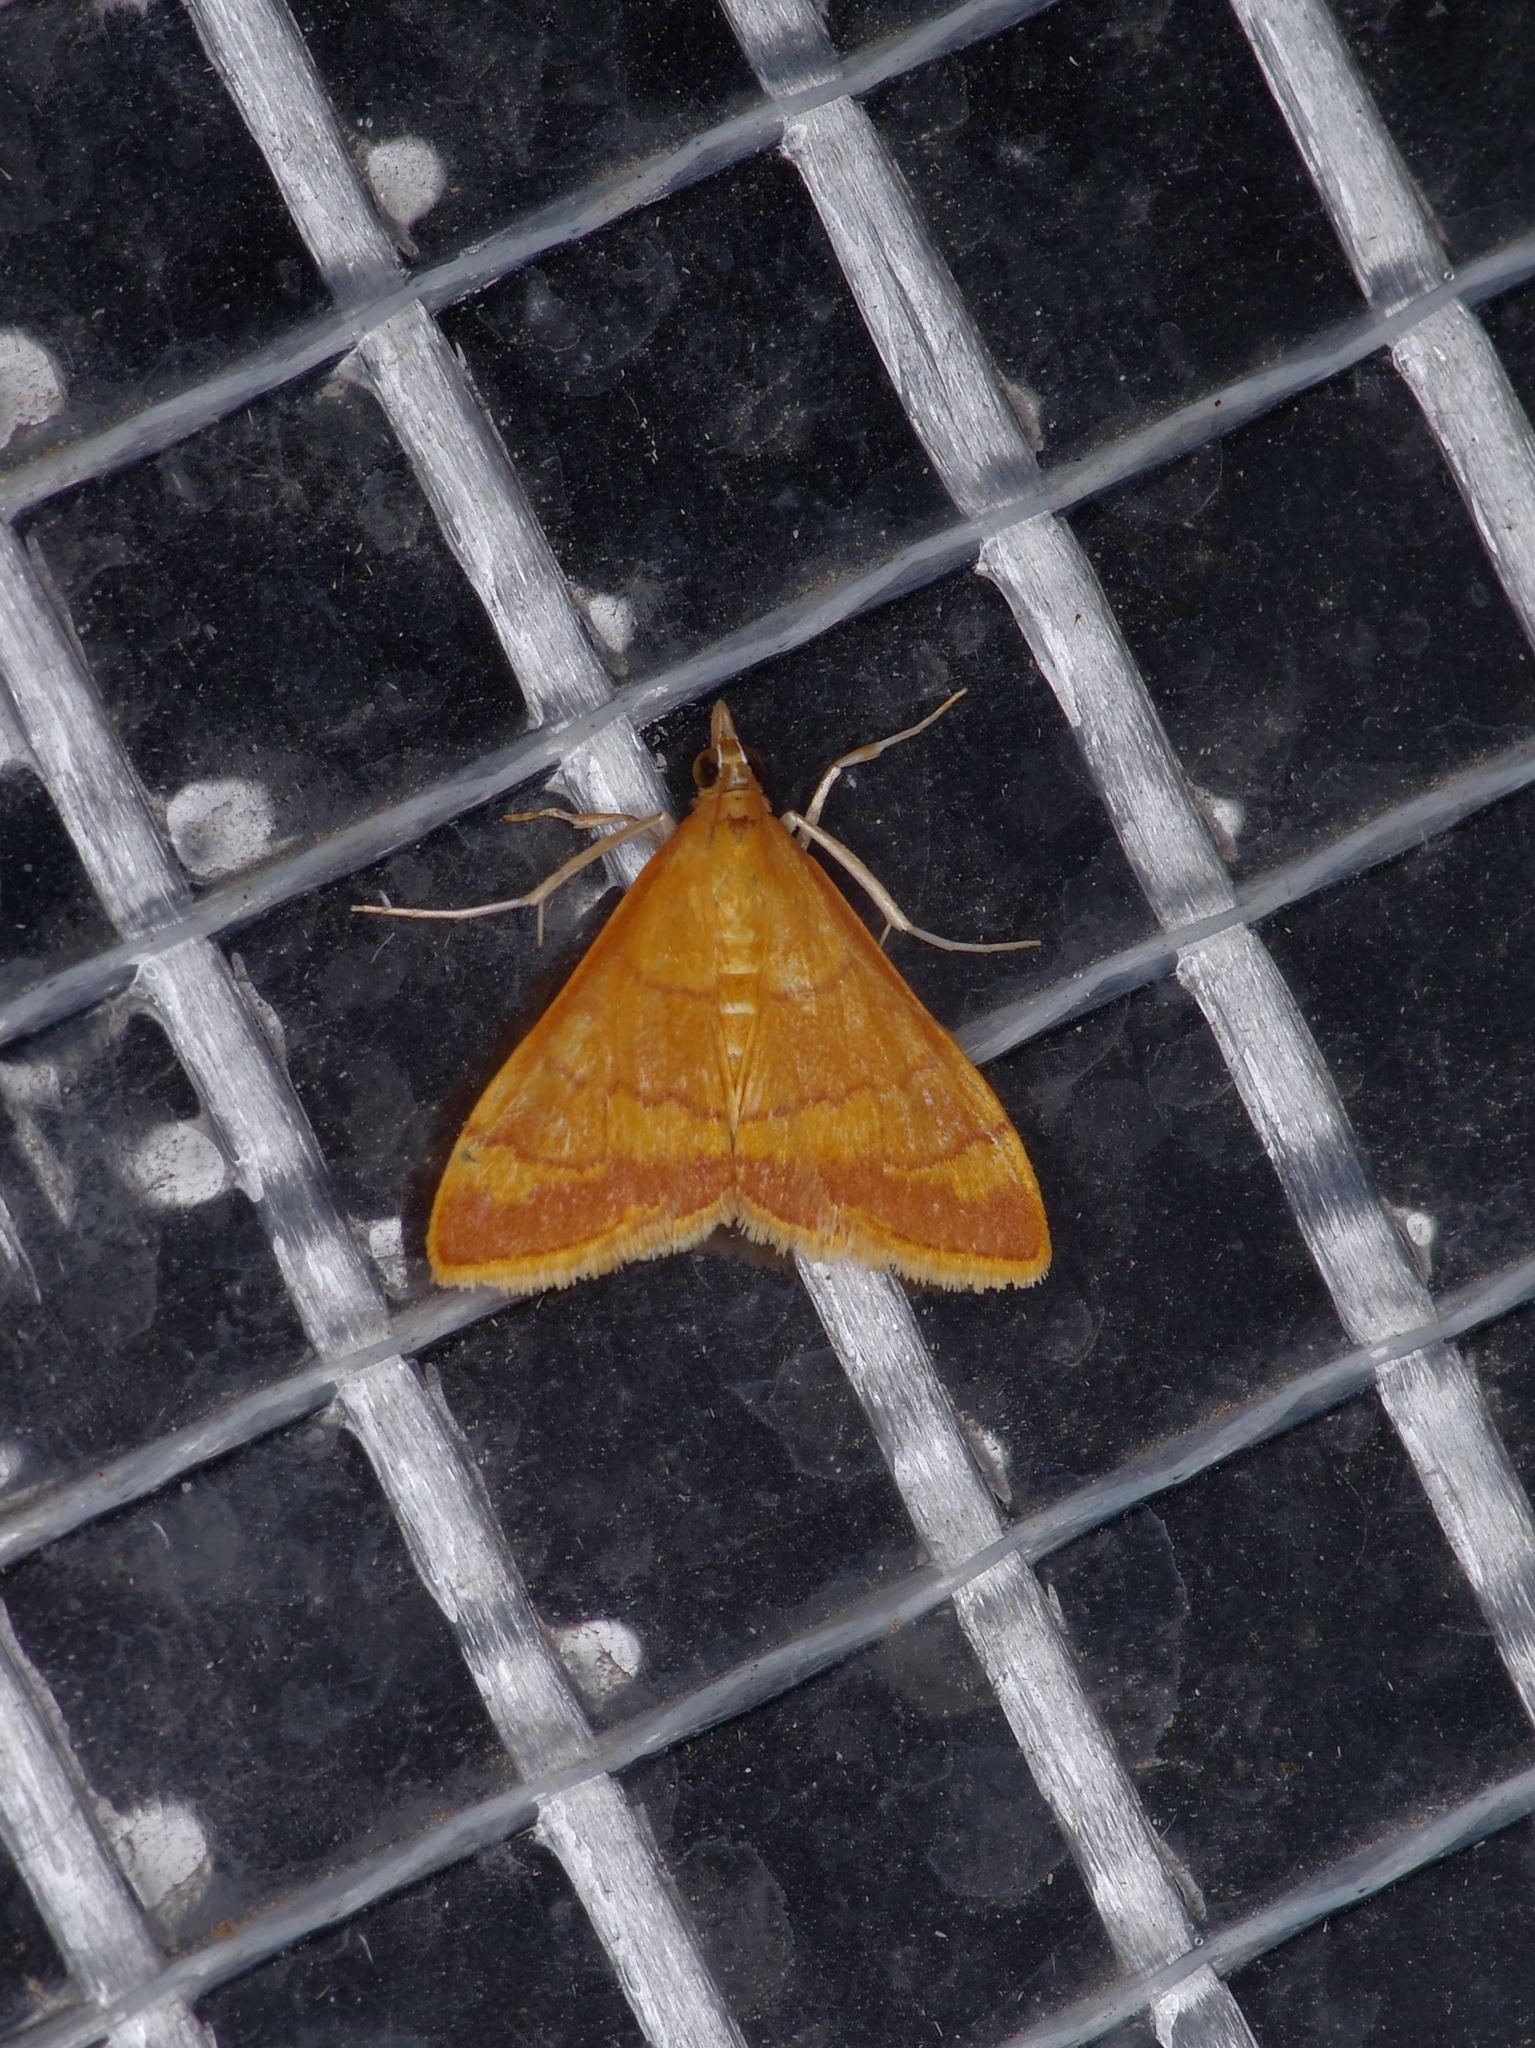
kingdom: Animalia
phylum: Arthropoda
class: Insecta
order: Lepidoptera
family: Crambidae
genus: Pyrausta
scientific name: Pyrausta pseudonythesalis
